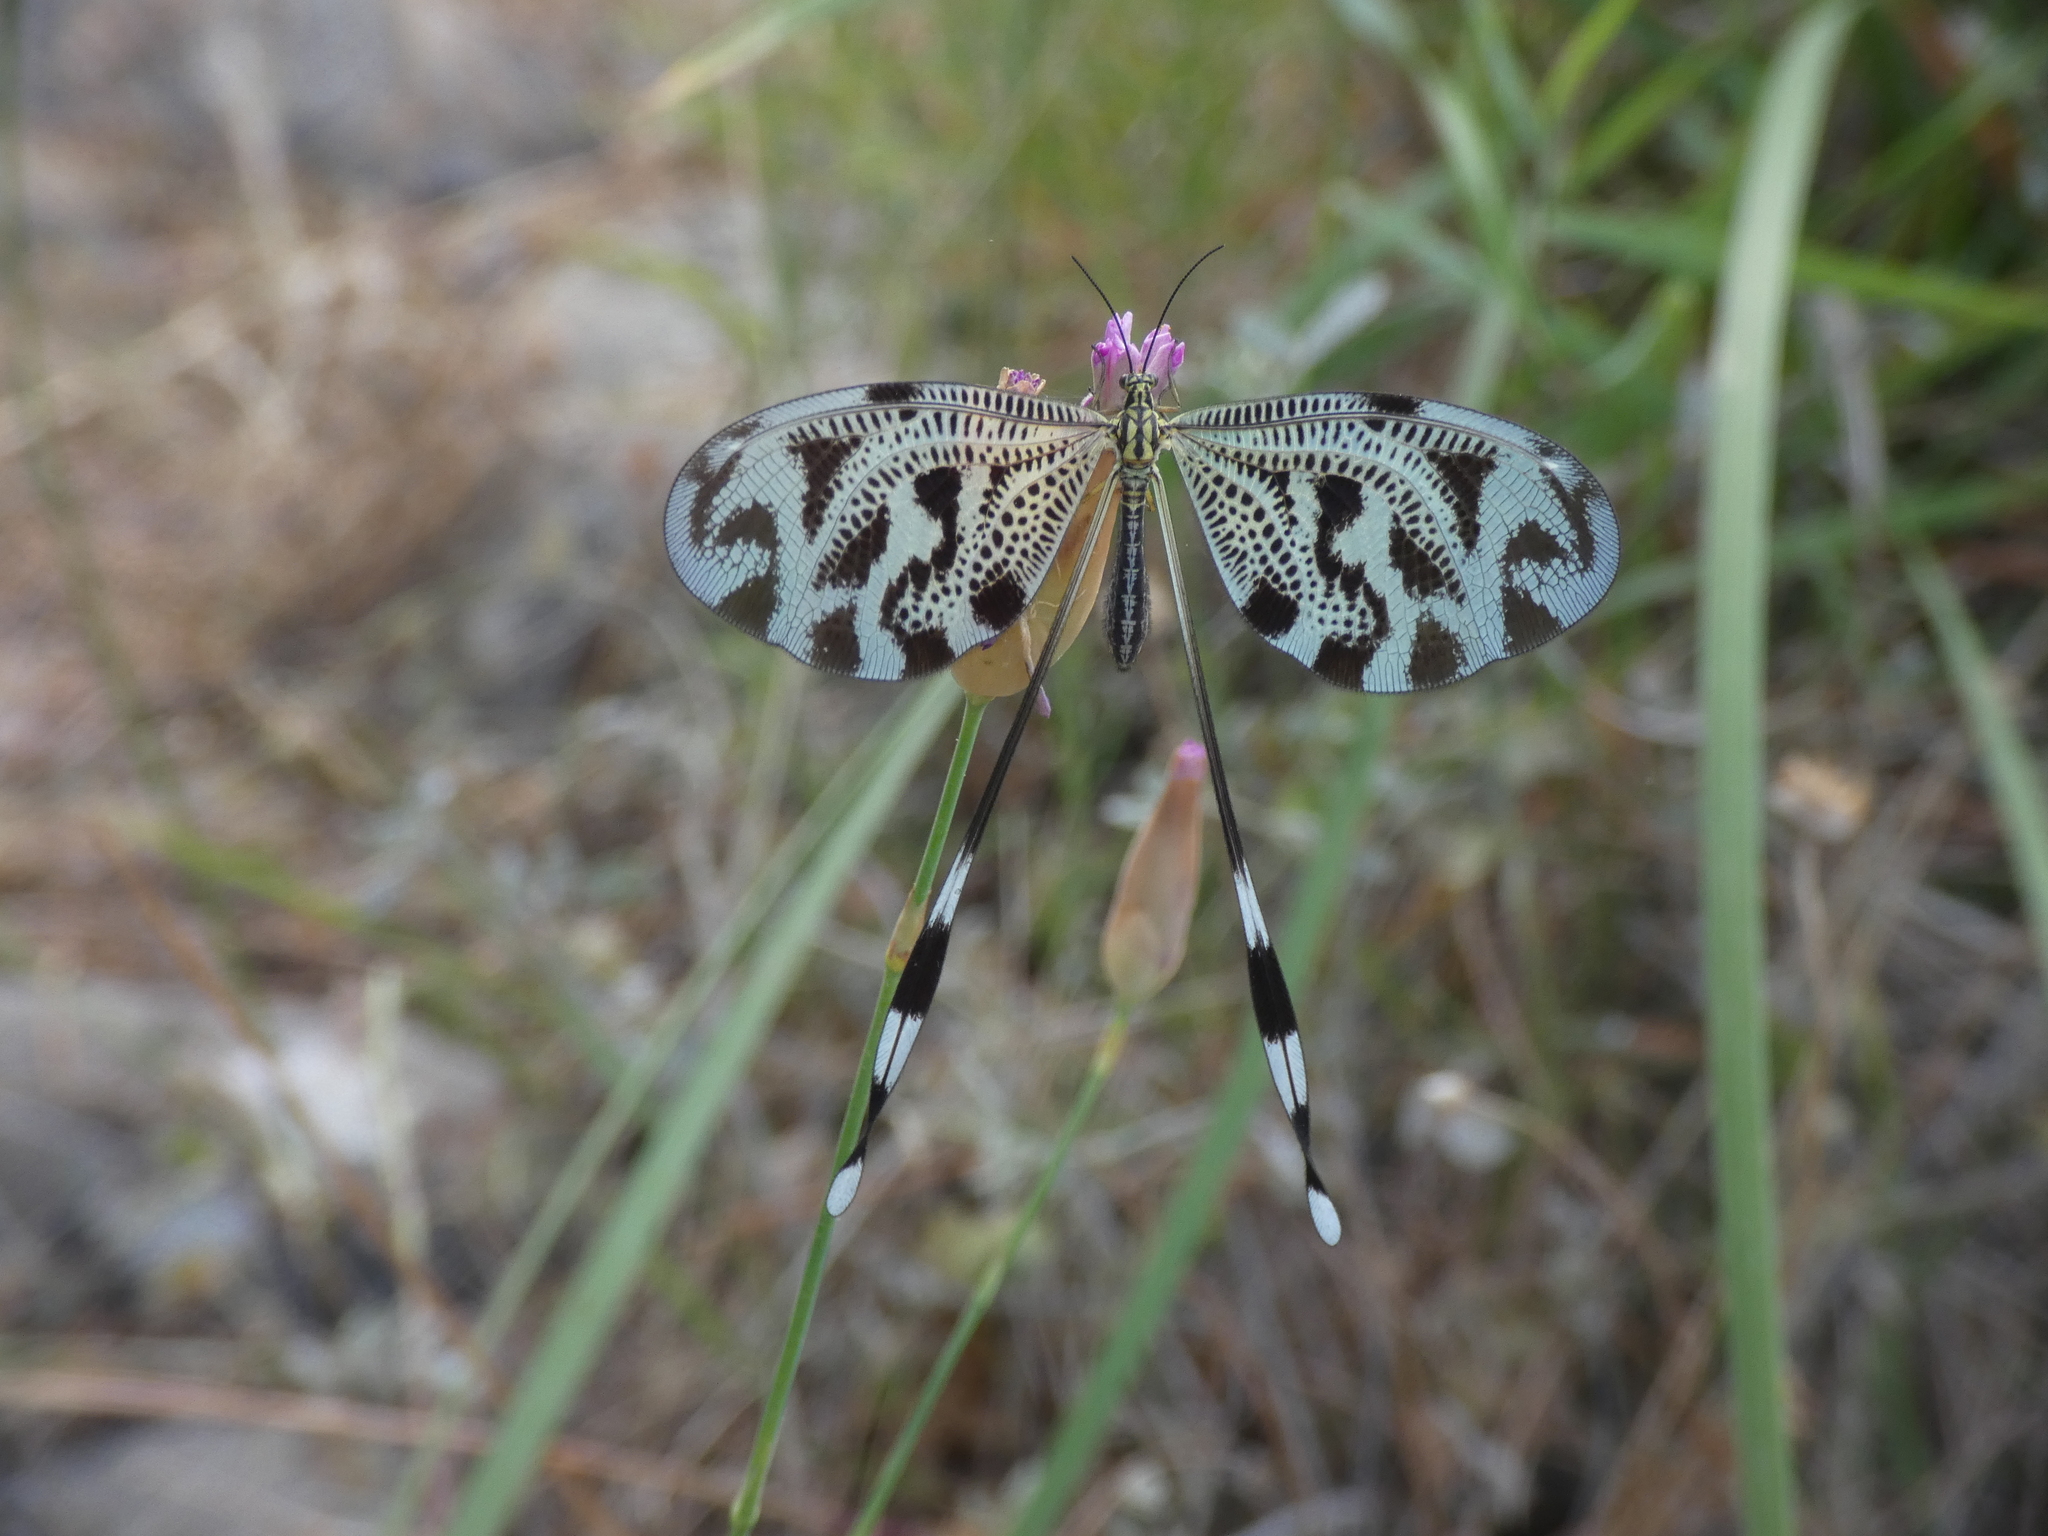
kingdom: Animalia
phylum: Arthropoda
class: Insecta
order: Neuroptera
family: Nemopteridae
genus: Nemoptera
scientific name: Nemoptera coa
